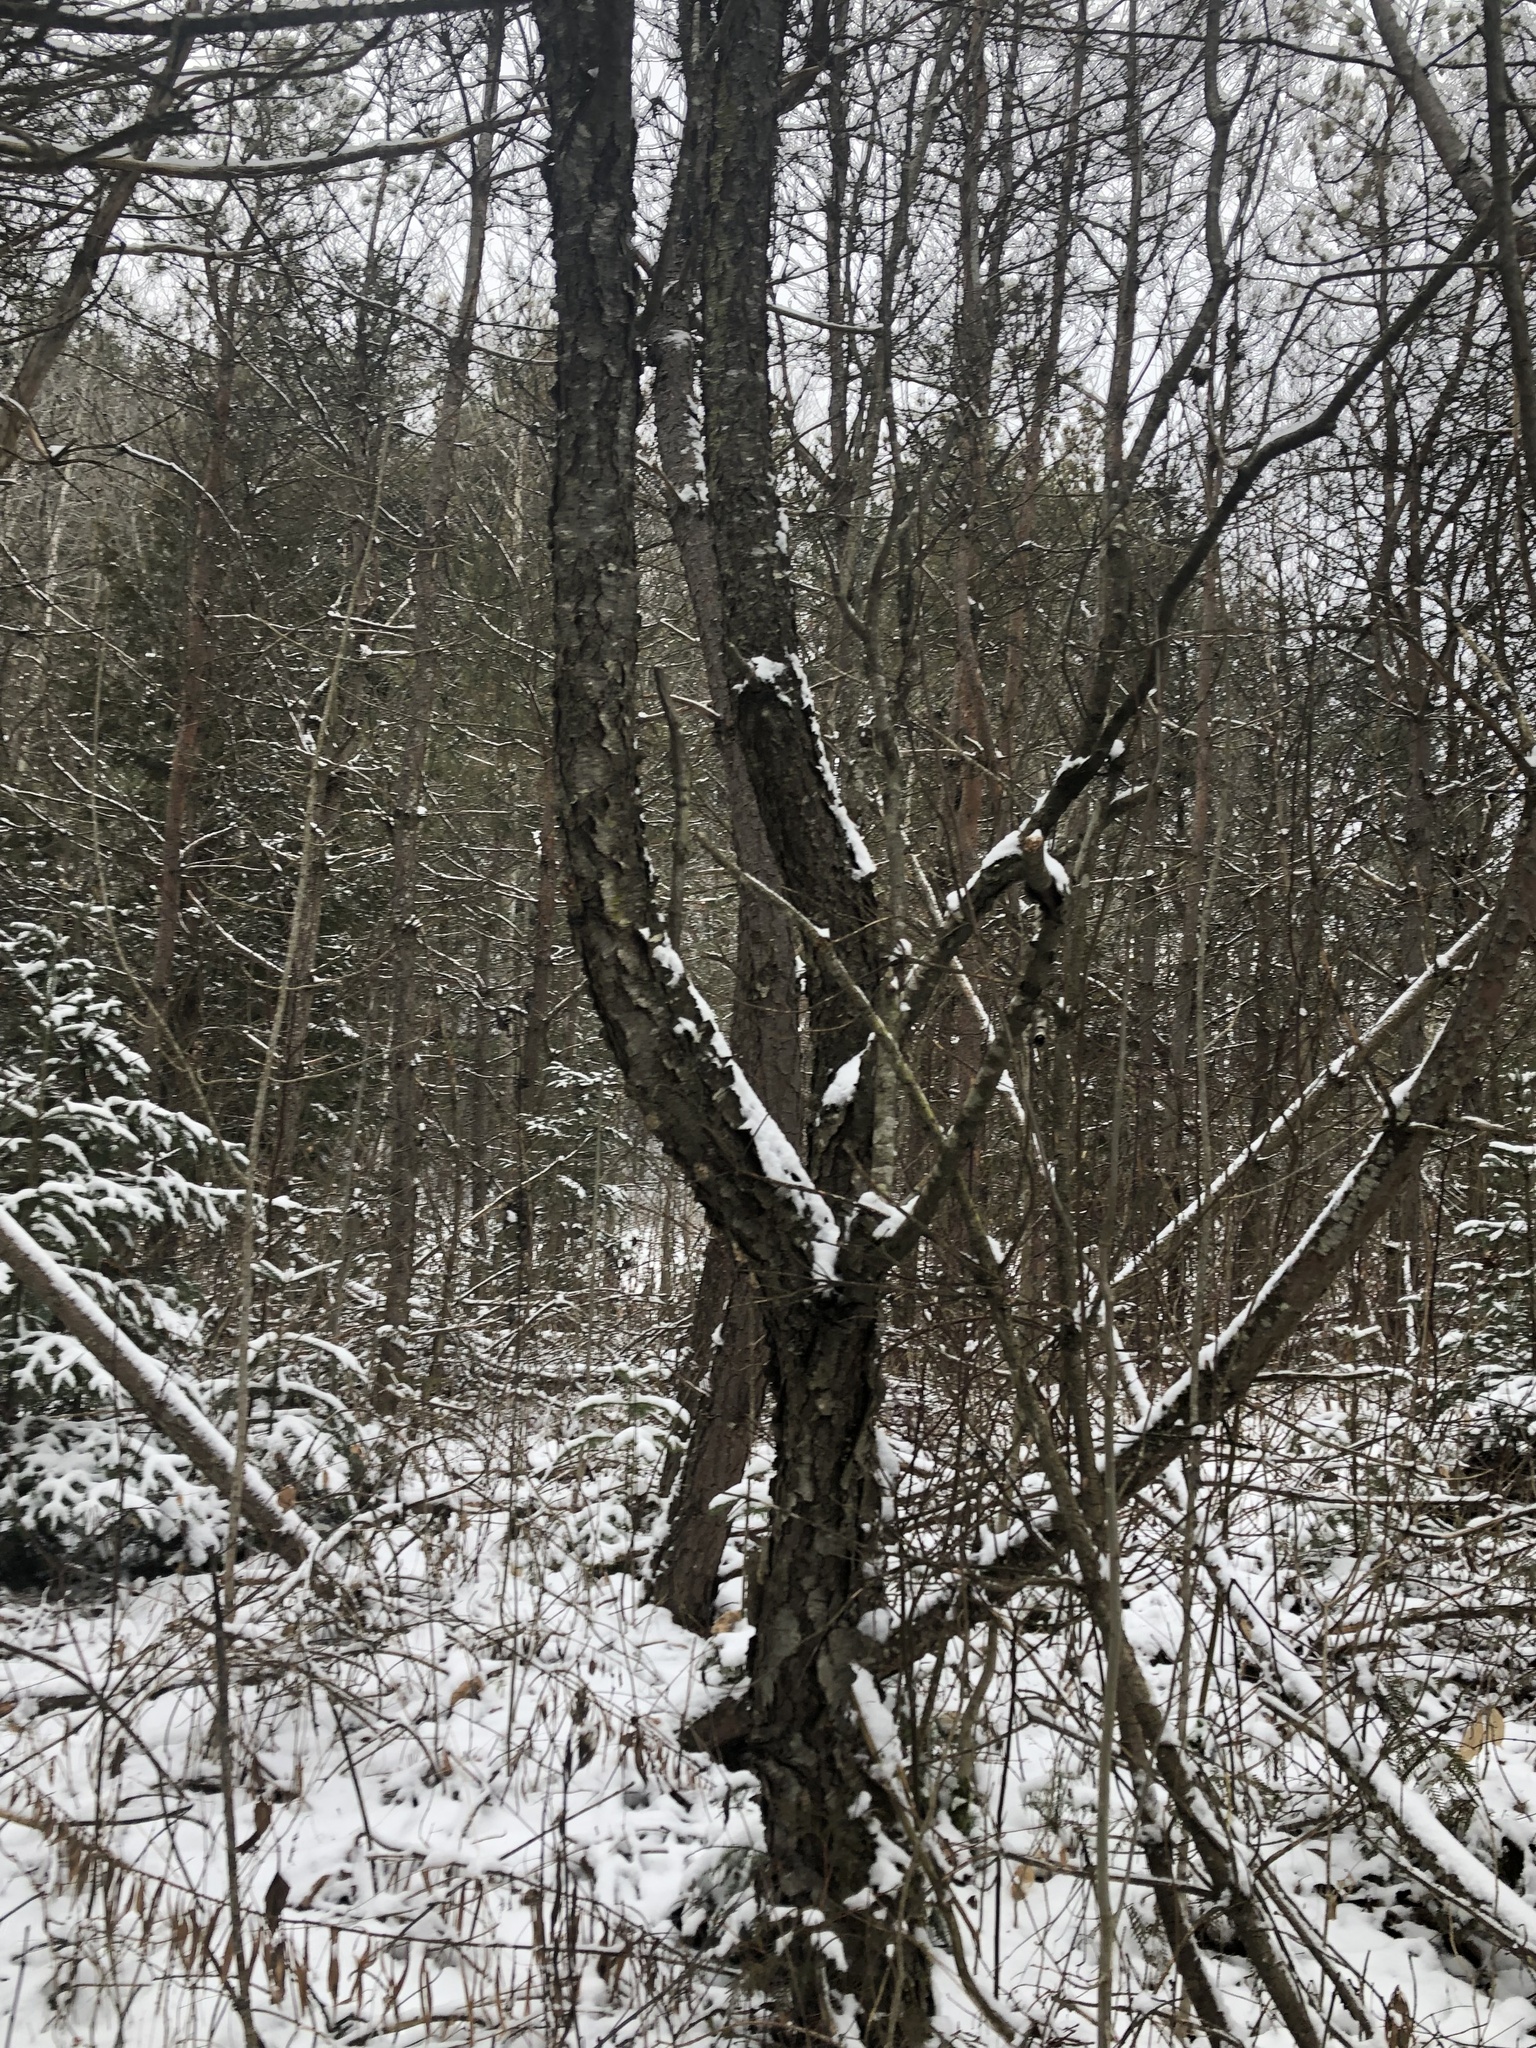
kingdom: Plantae
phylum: Tracheophyta
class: Magnoliopsida
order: Rosales
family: Rosaceae
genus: Prunus
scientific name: Prunus serotina
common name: Black cherry
